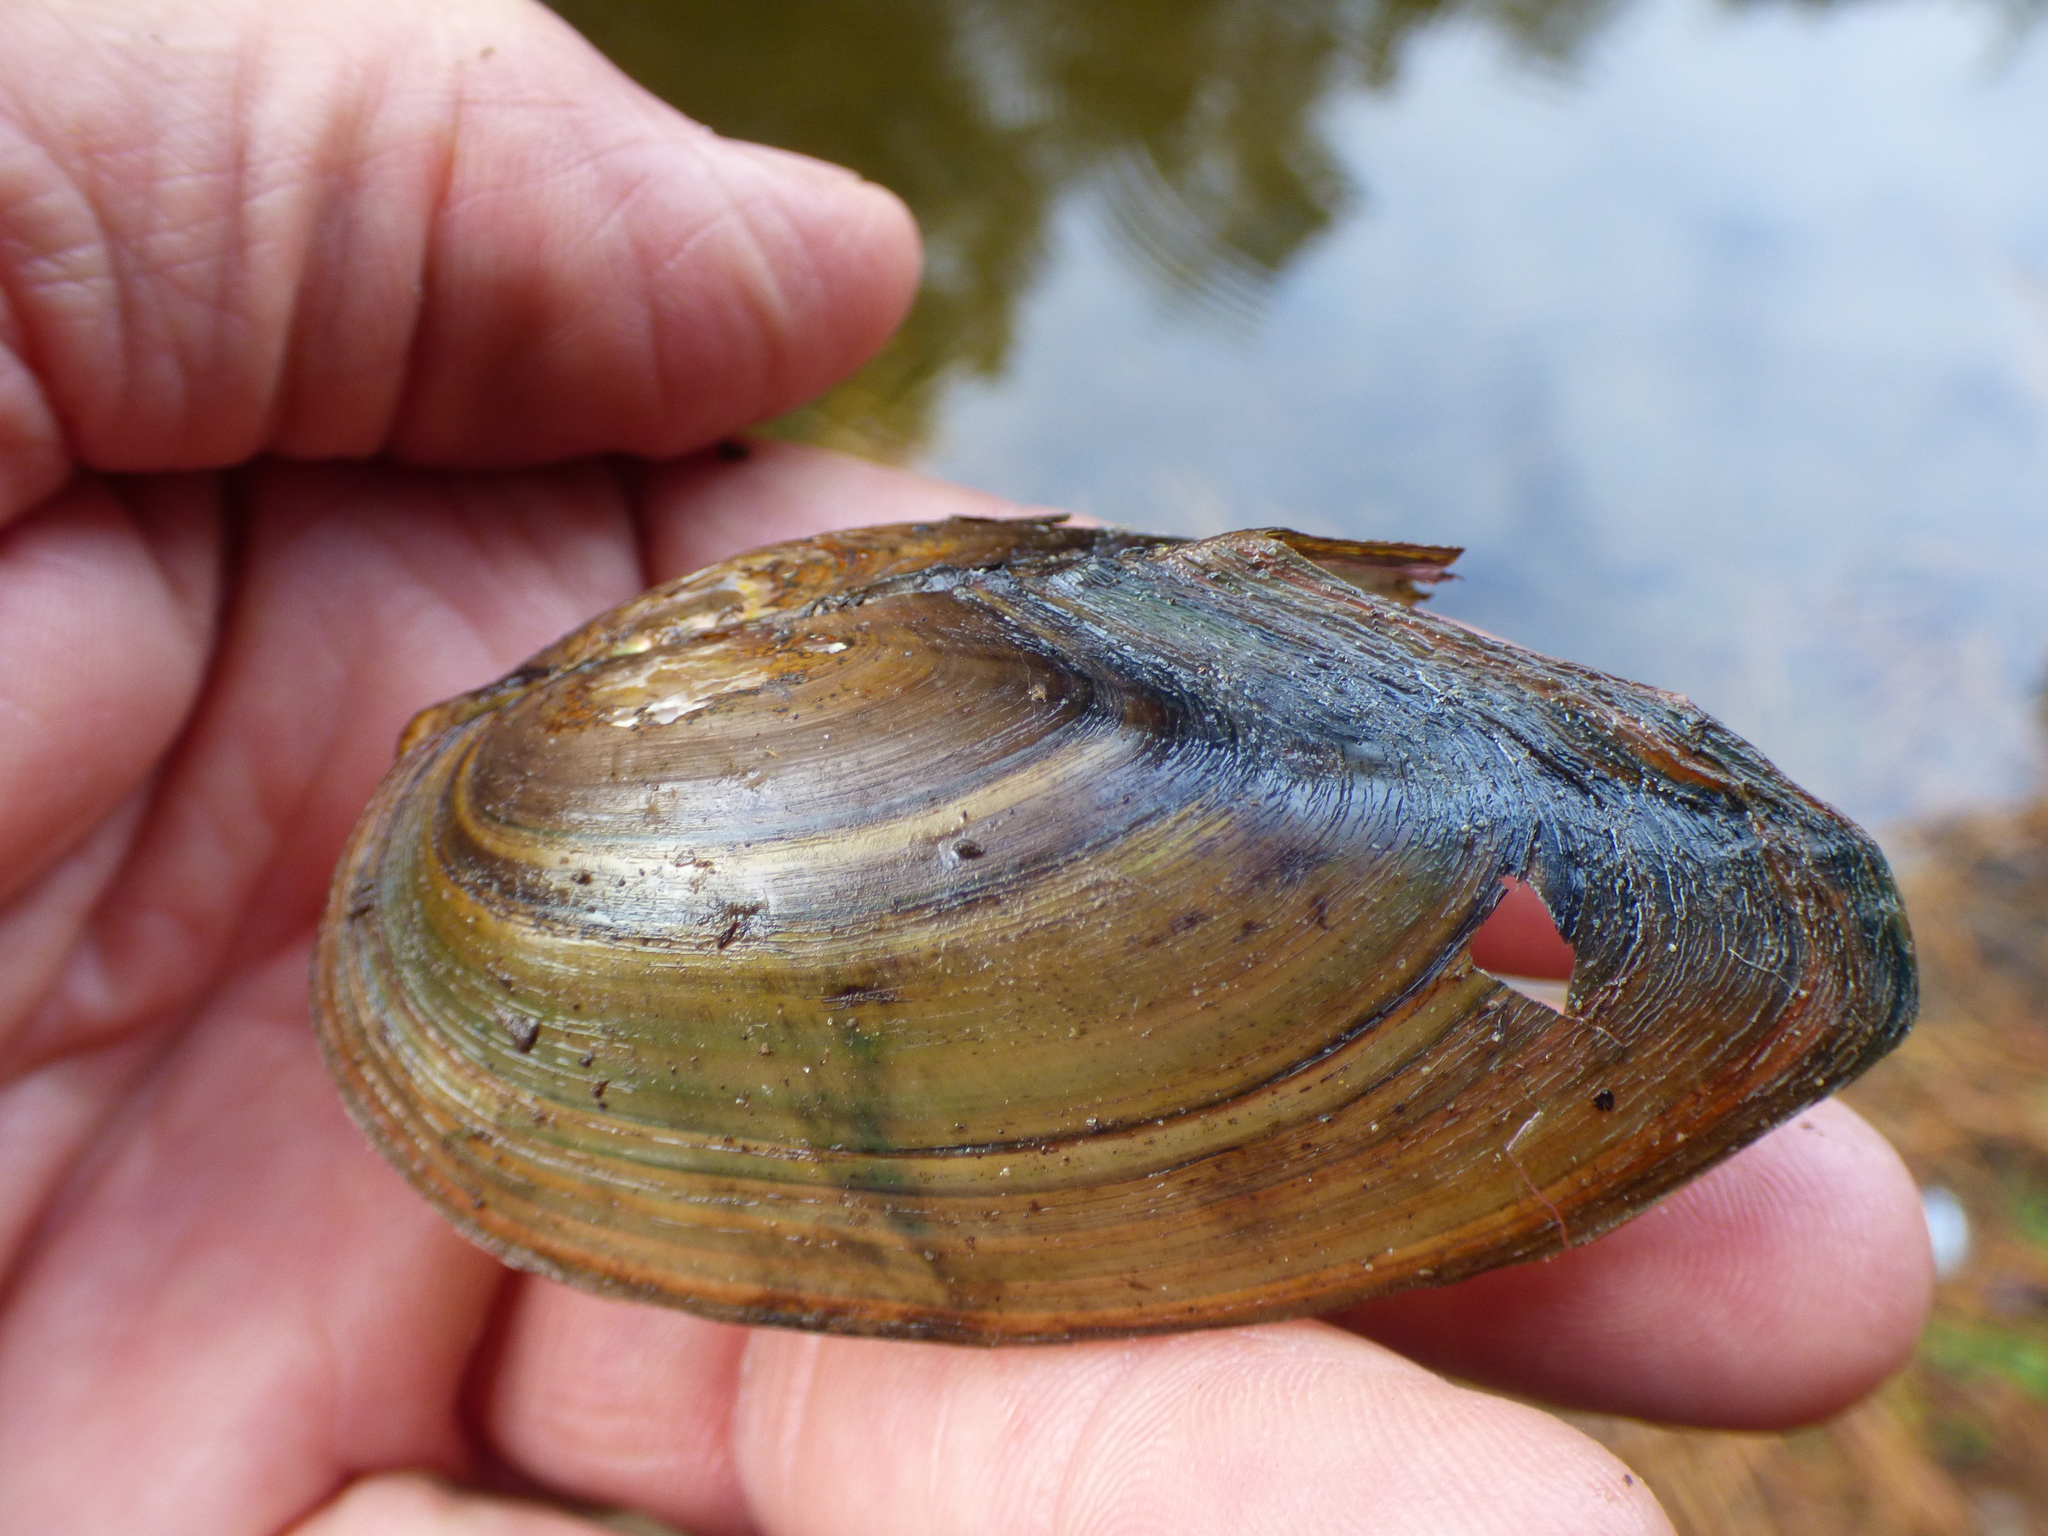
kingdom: Animalia
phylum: Mollusca
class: Bivalvia
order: Unionida
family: Unionidae
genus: Utterbackia
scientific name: Utterbackia imbecillis
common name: Paper pondshell
